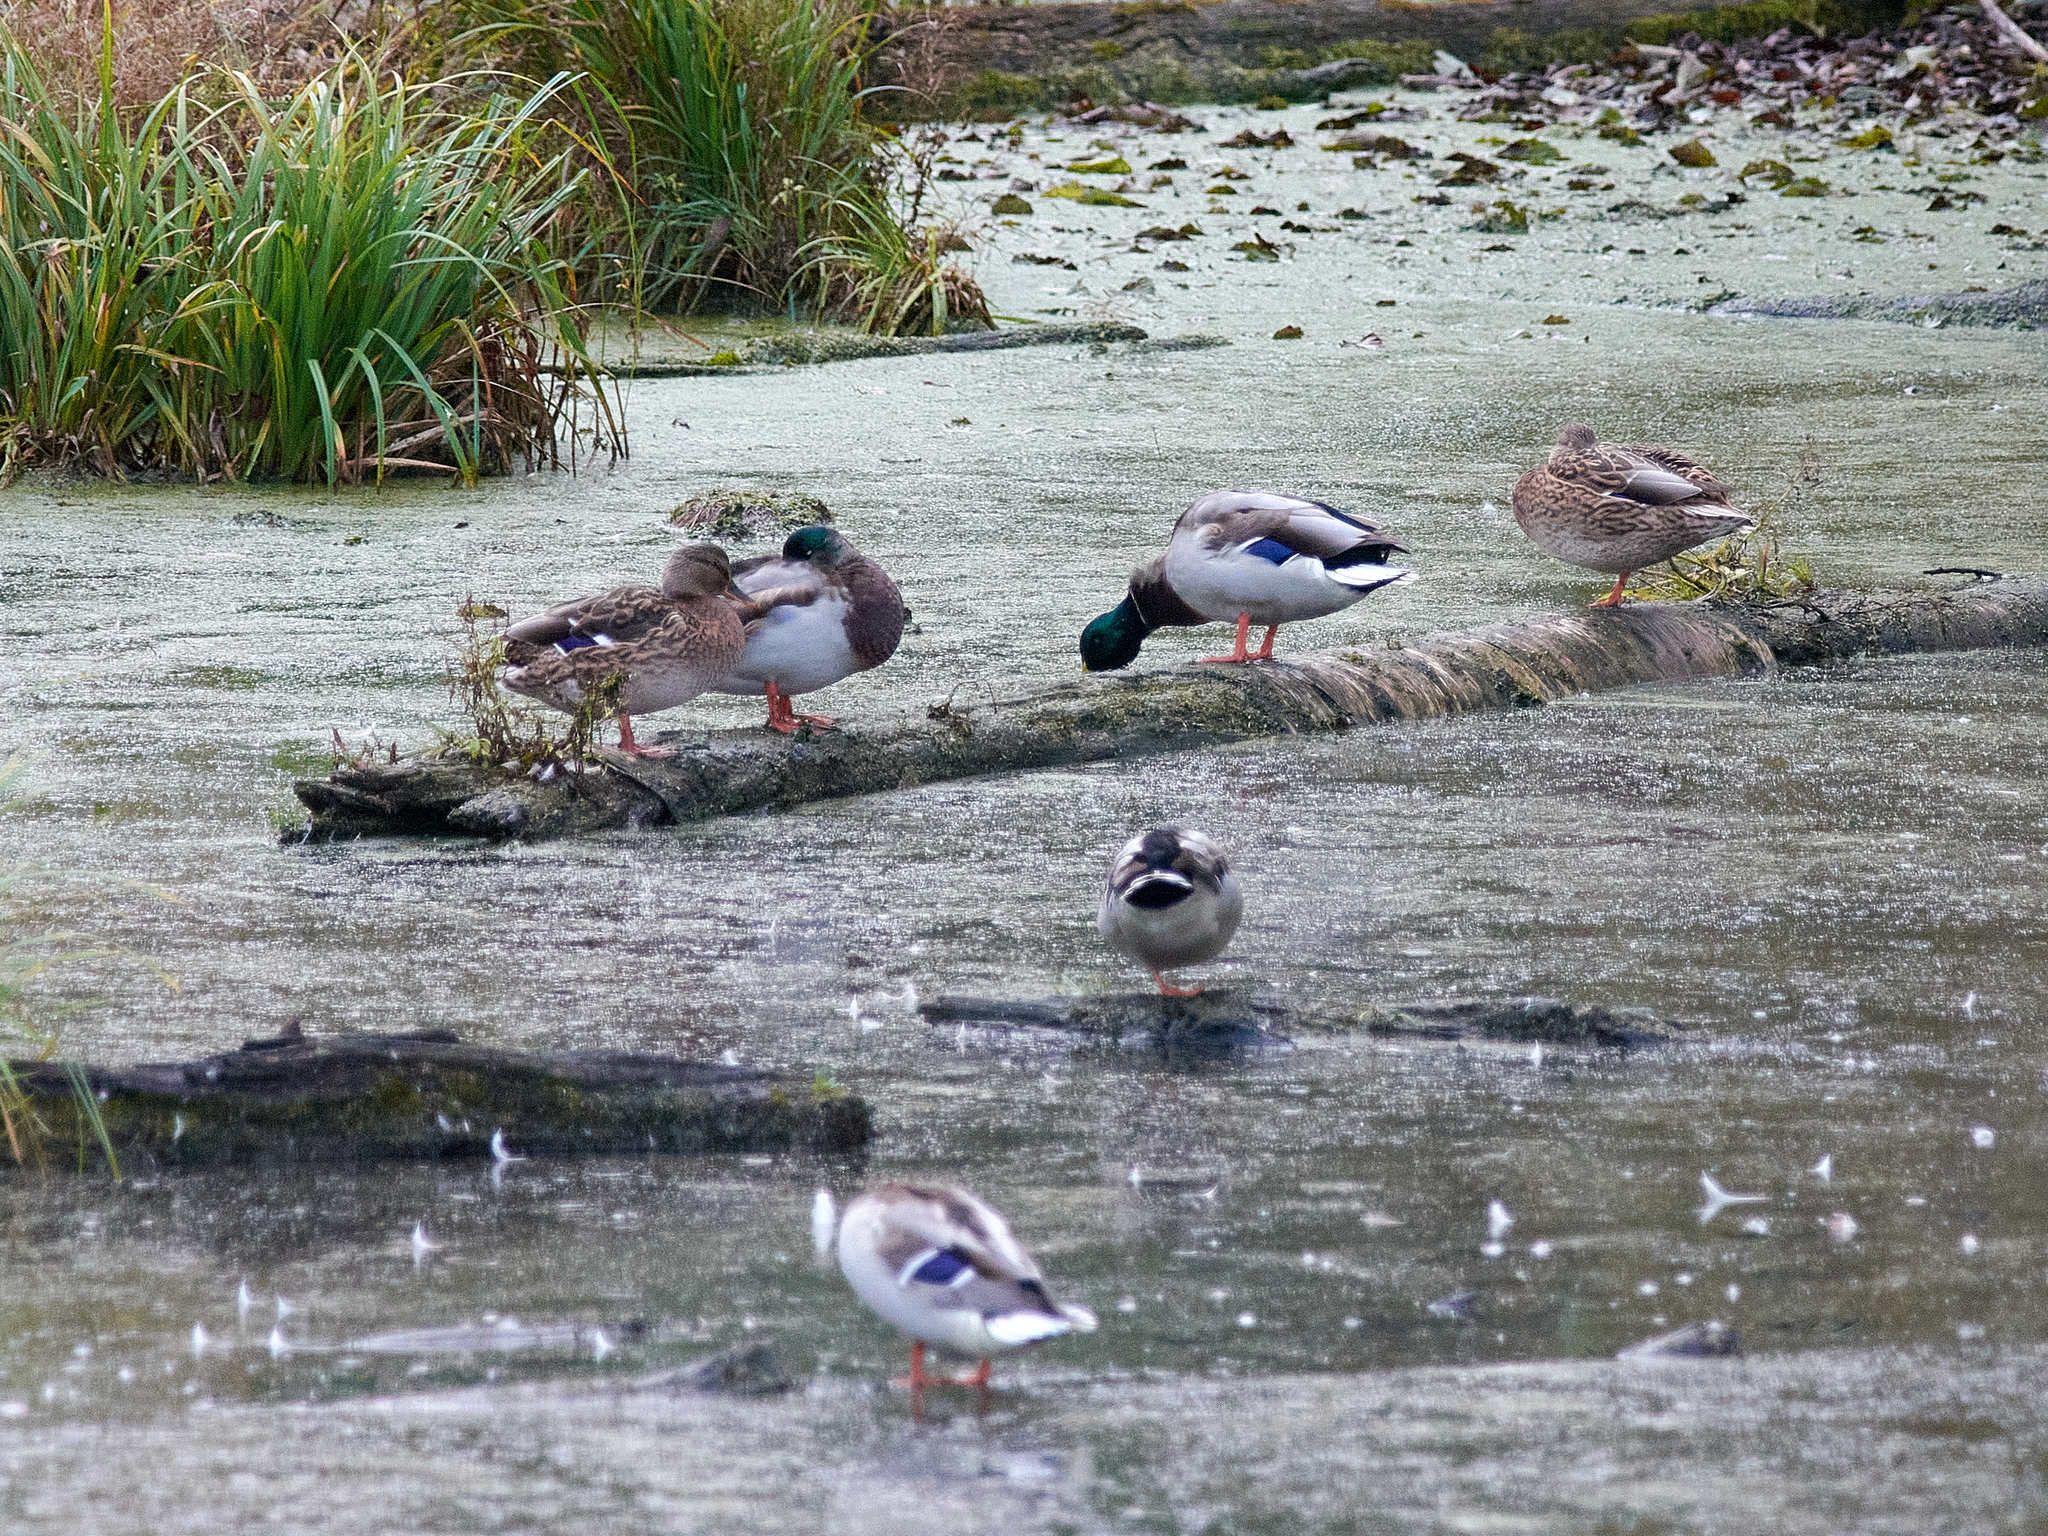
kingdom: Animalia
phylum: Chordata
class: Aves
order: Anseriformes
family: Anatidae
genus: Anas
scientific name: Anas platyrhynchos
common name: Mallard
